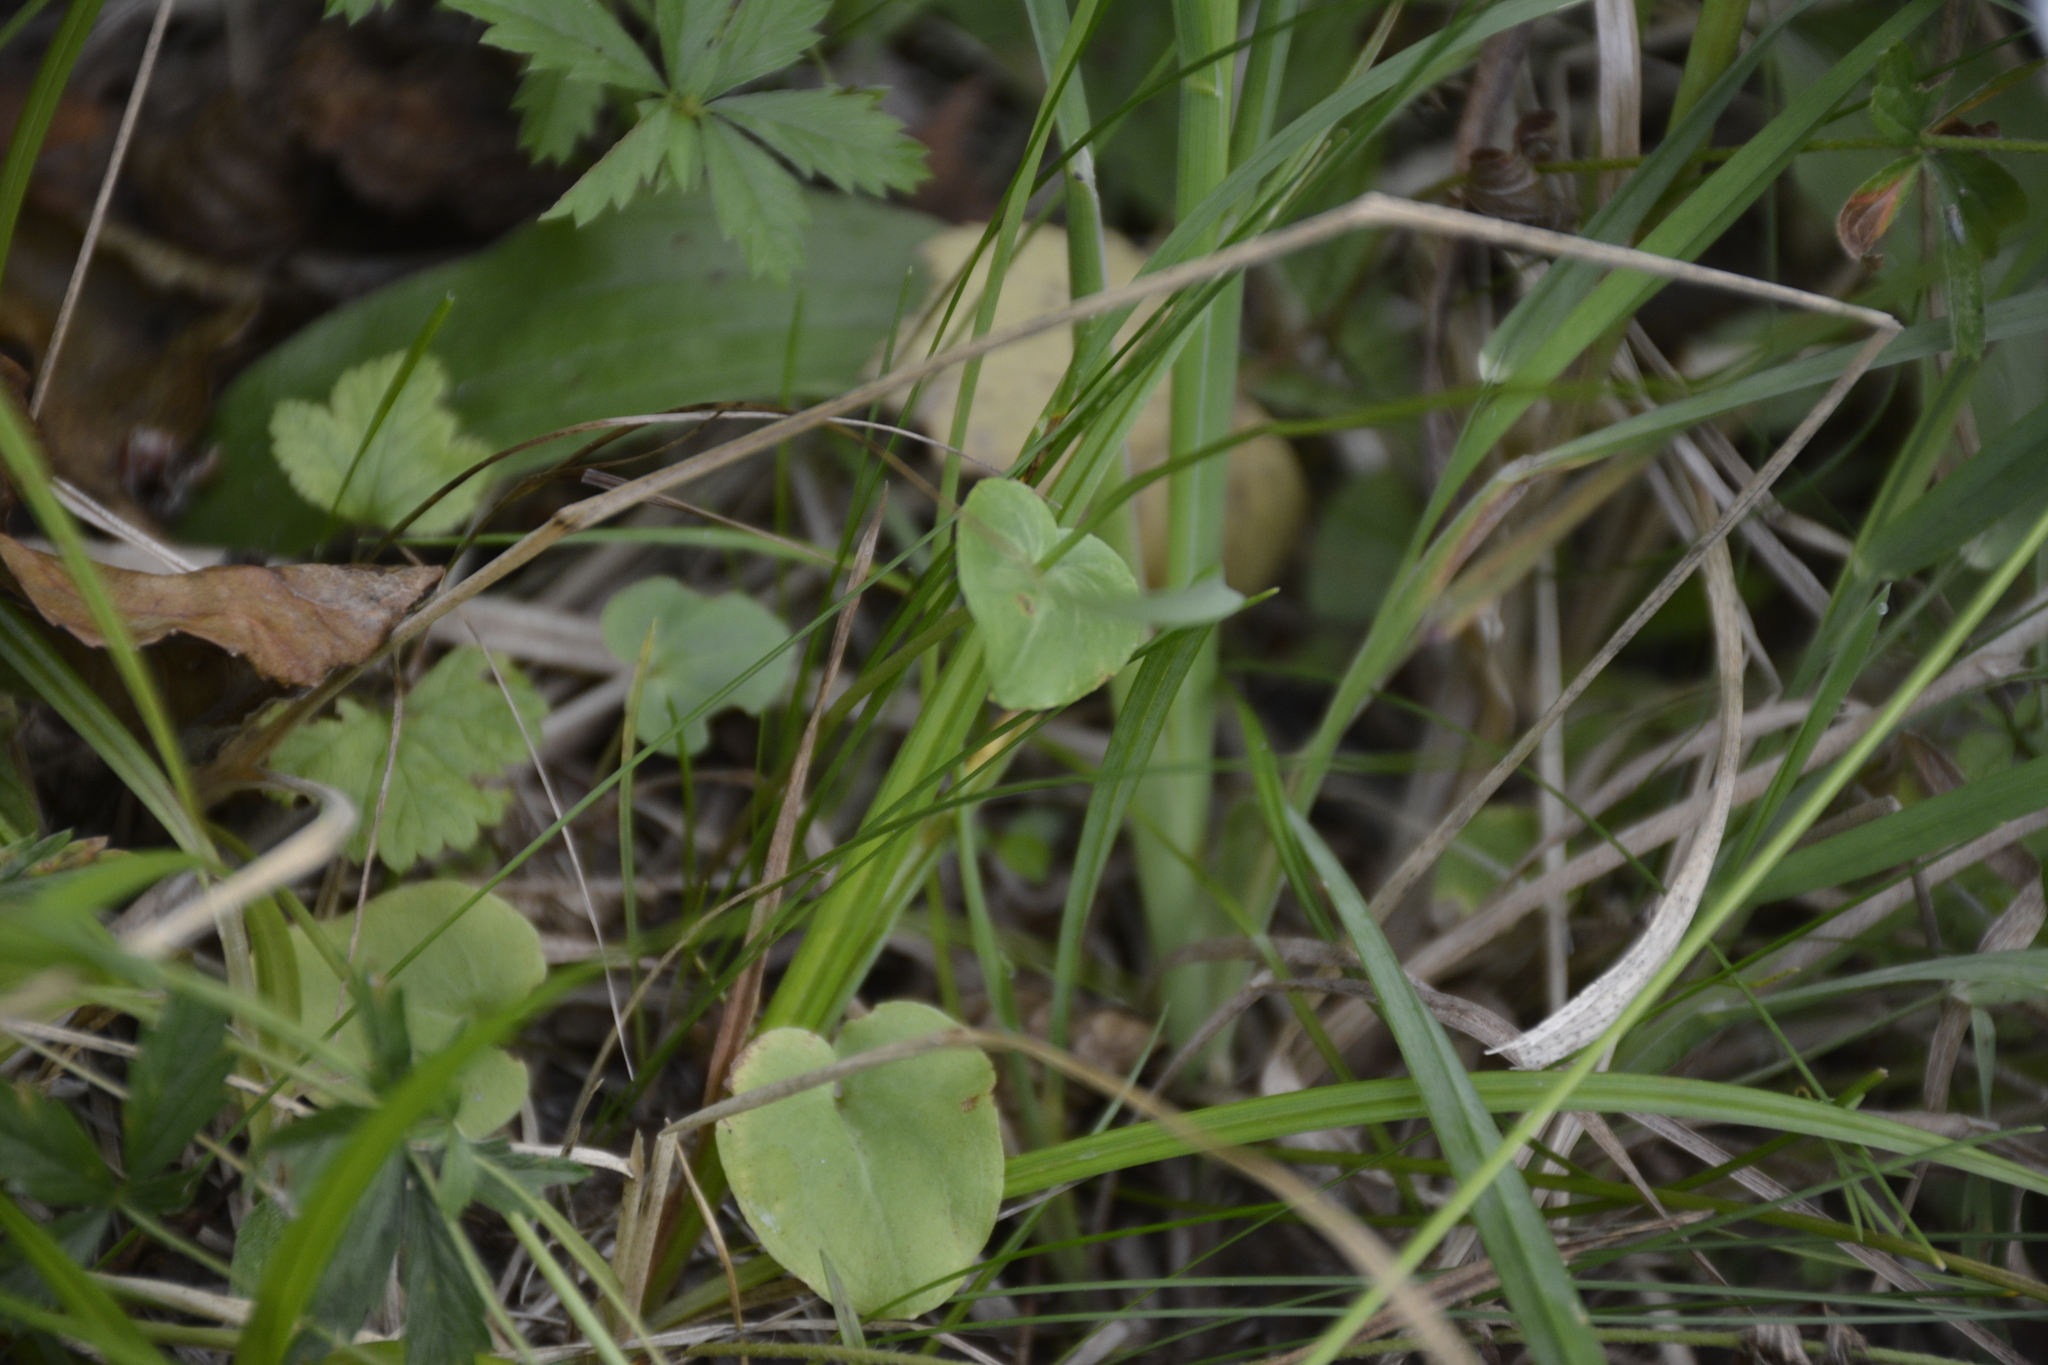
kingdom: Plantae
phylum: Tracheophyta
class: Magnoliopsida
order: Celastrales
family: Parnassiaceae
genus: Parnassia
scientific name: Parnassia palustris
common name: Grass-of-parnassus
